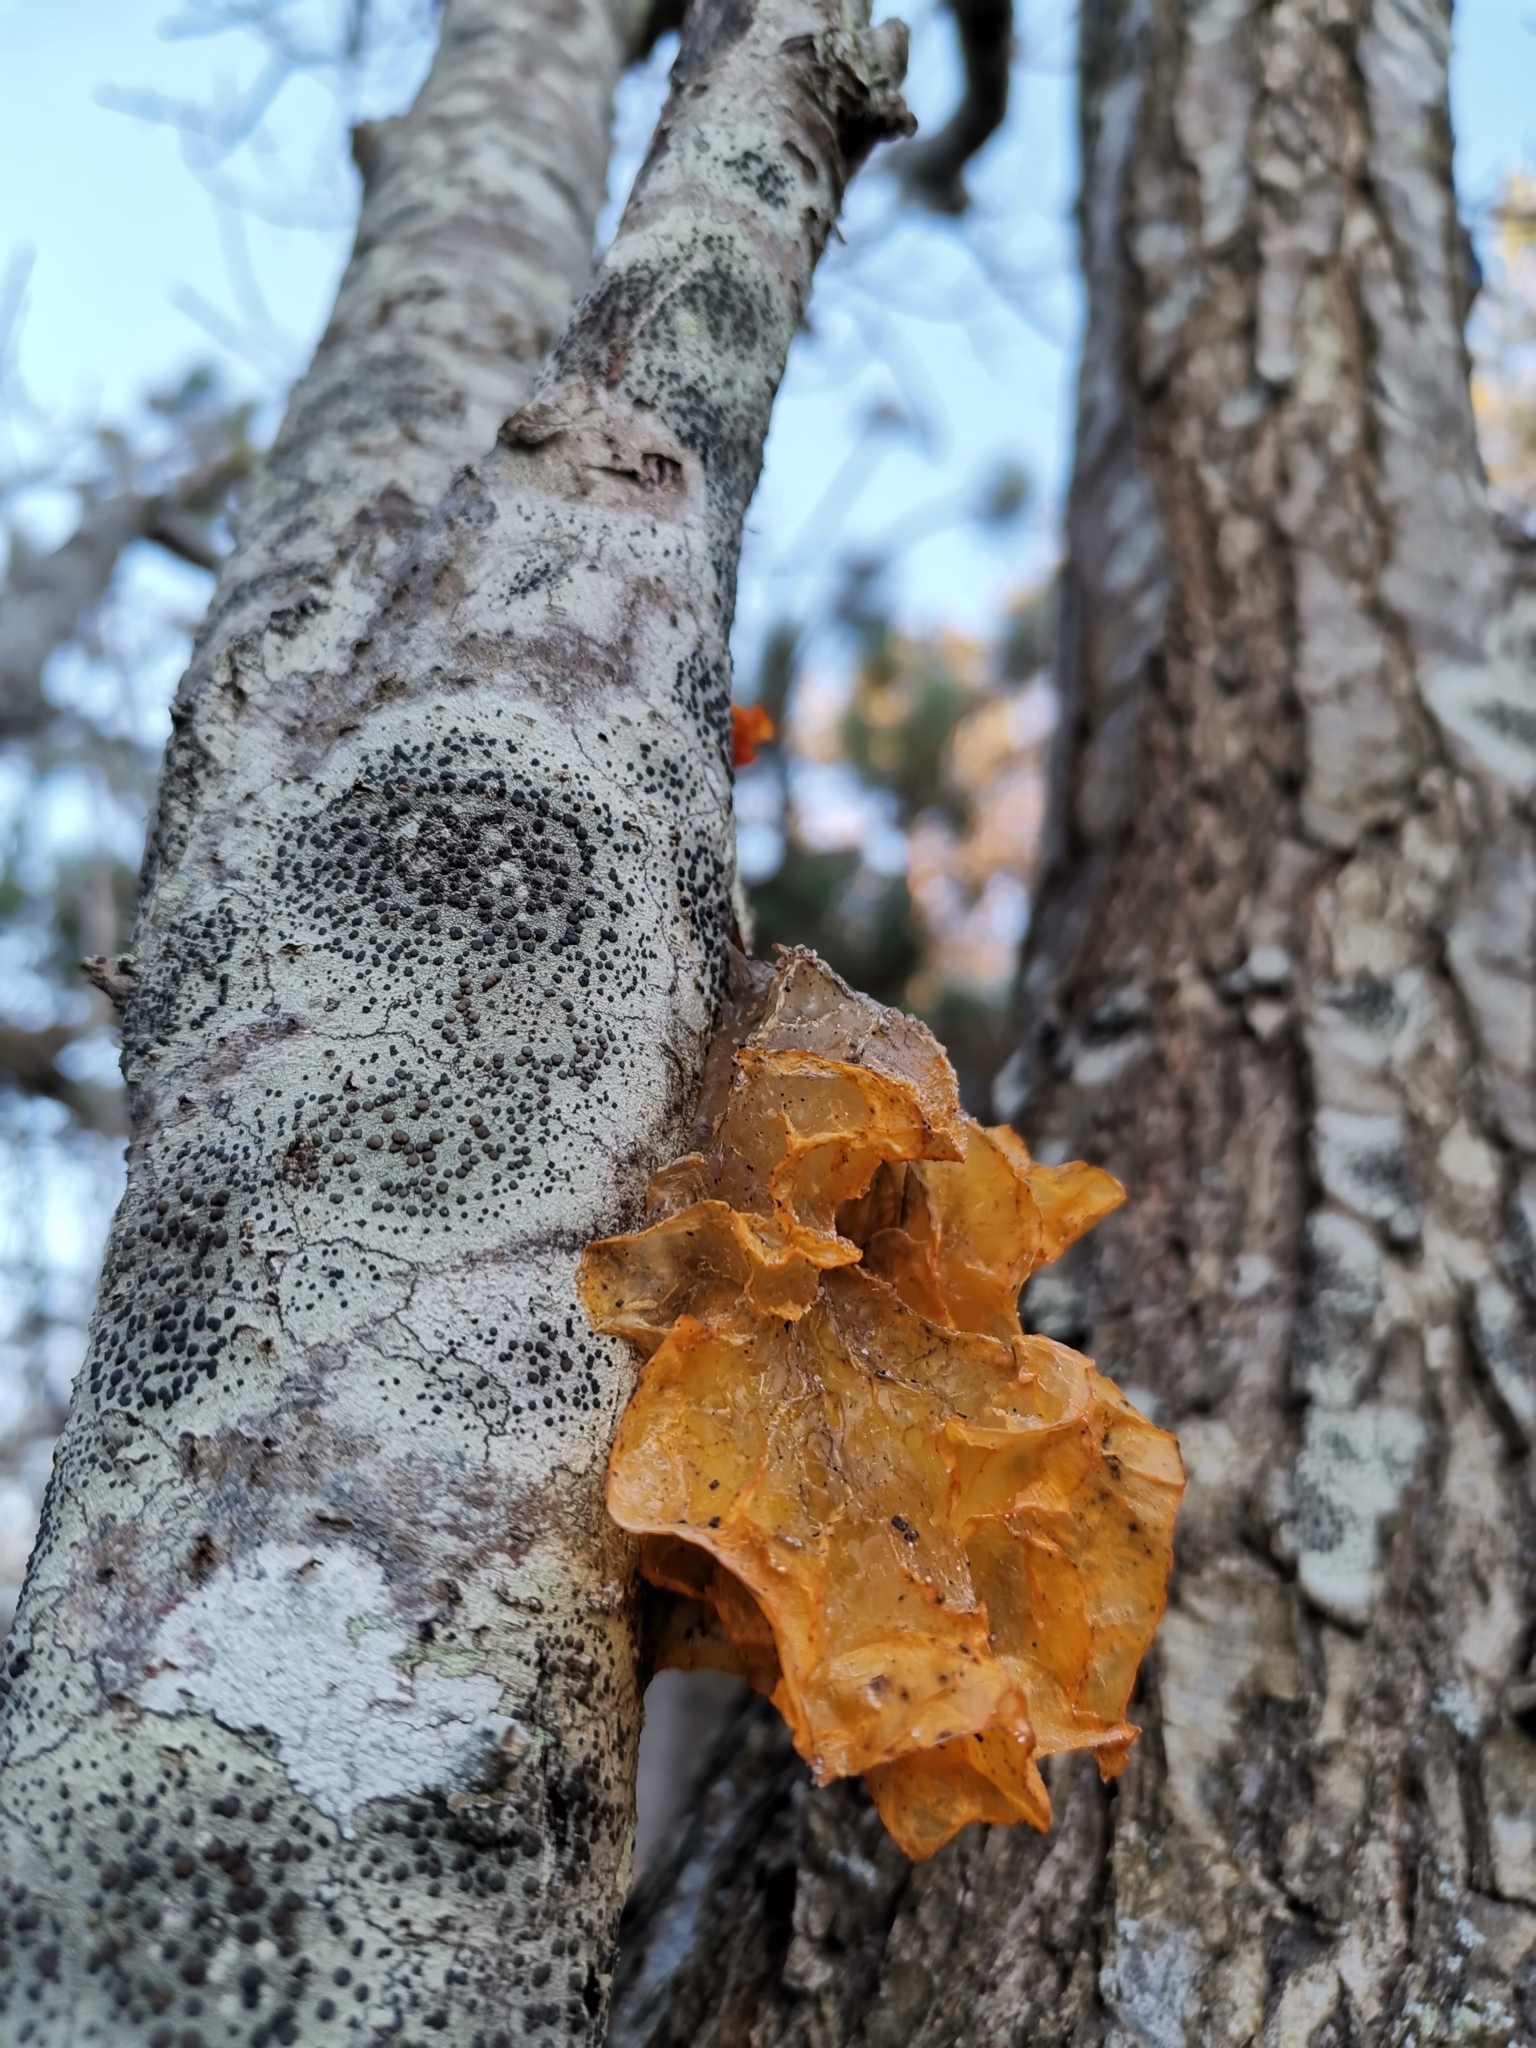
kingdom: Fungi
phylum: Basidiomycota
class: Tremellomycetes
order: Tremellales
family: Tremellaceae
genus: Tremella
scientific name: Tremella mesenterica
